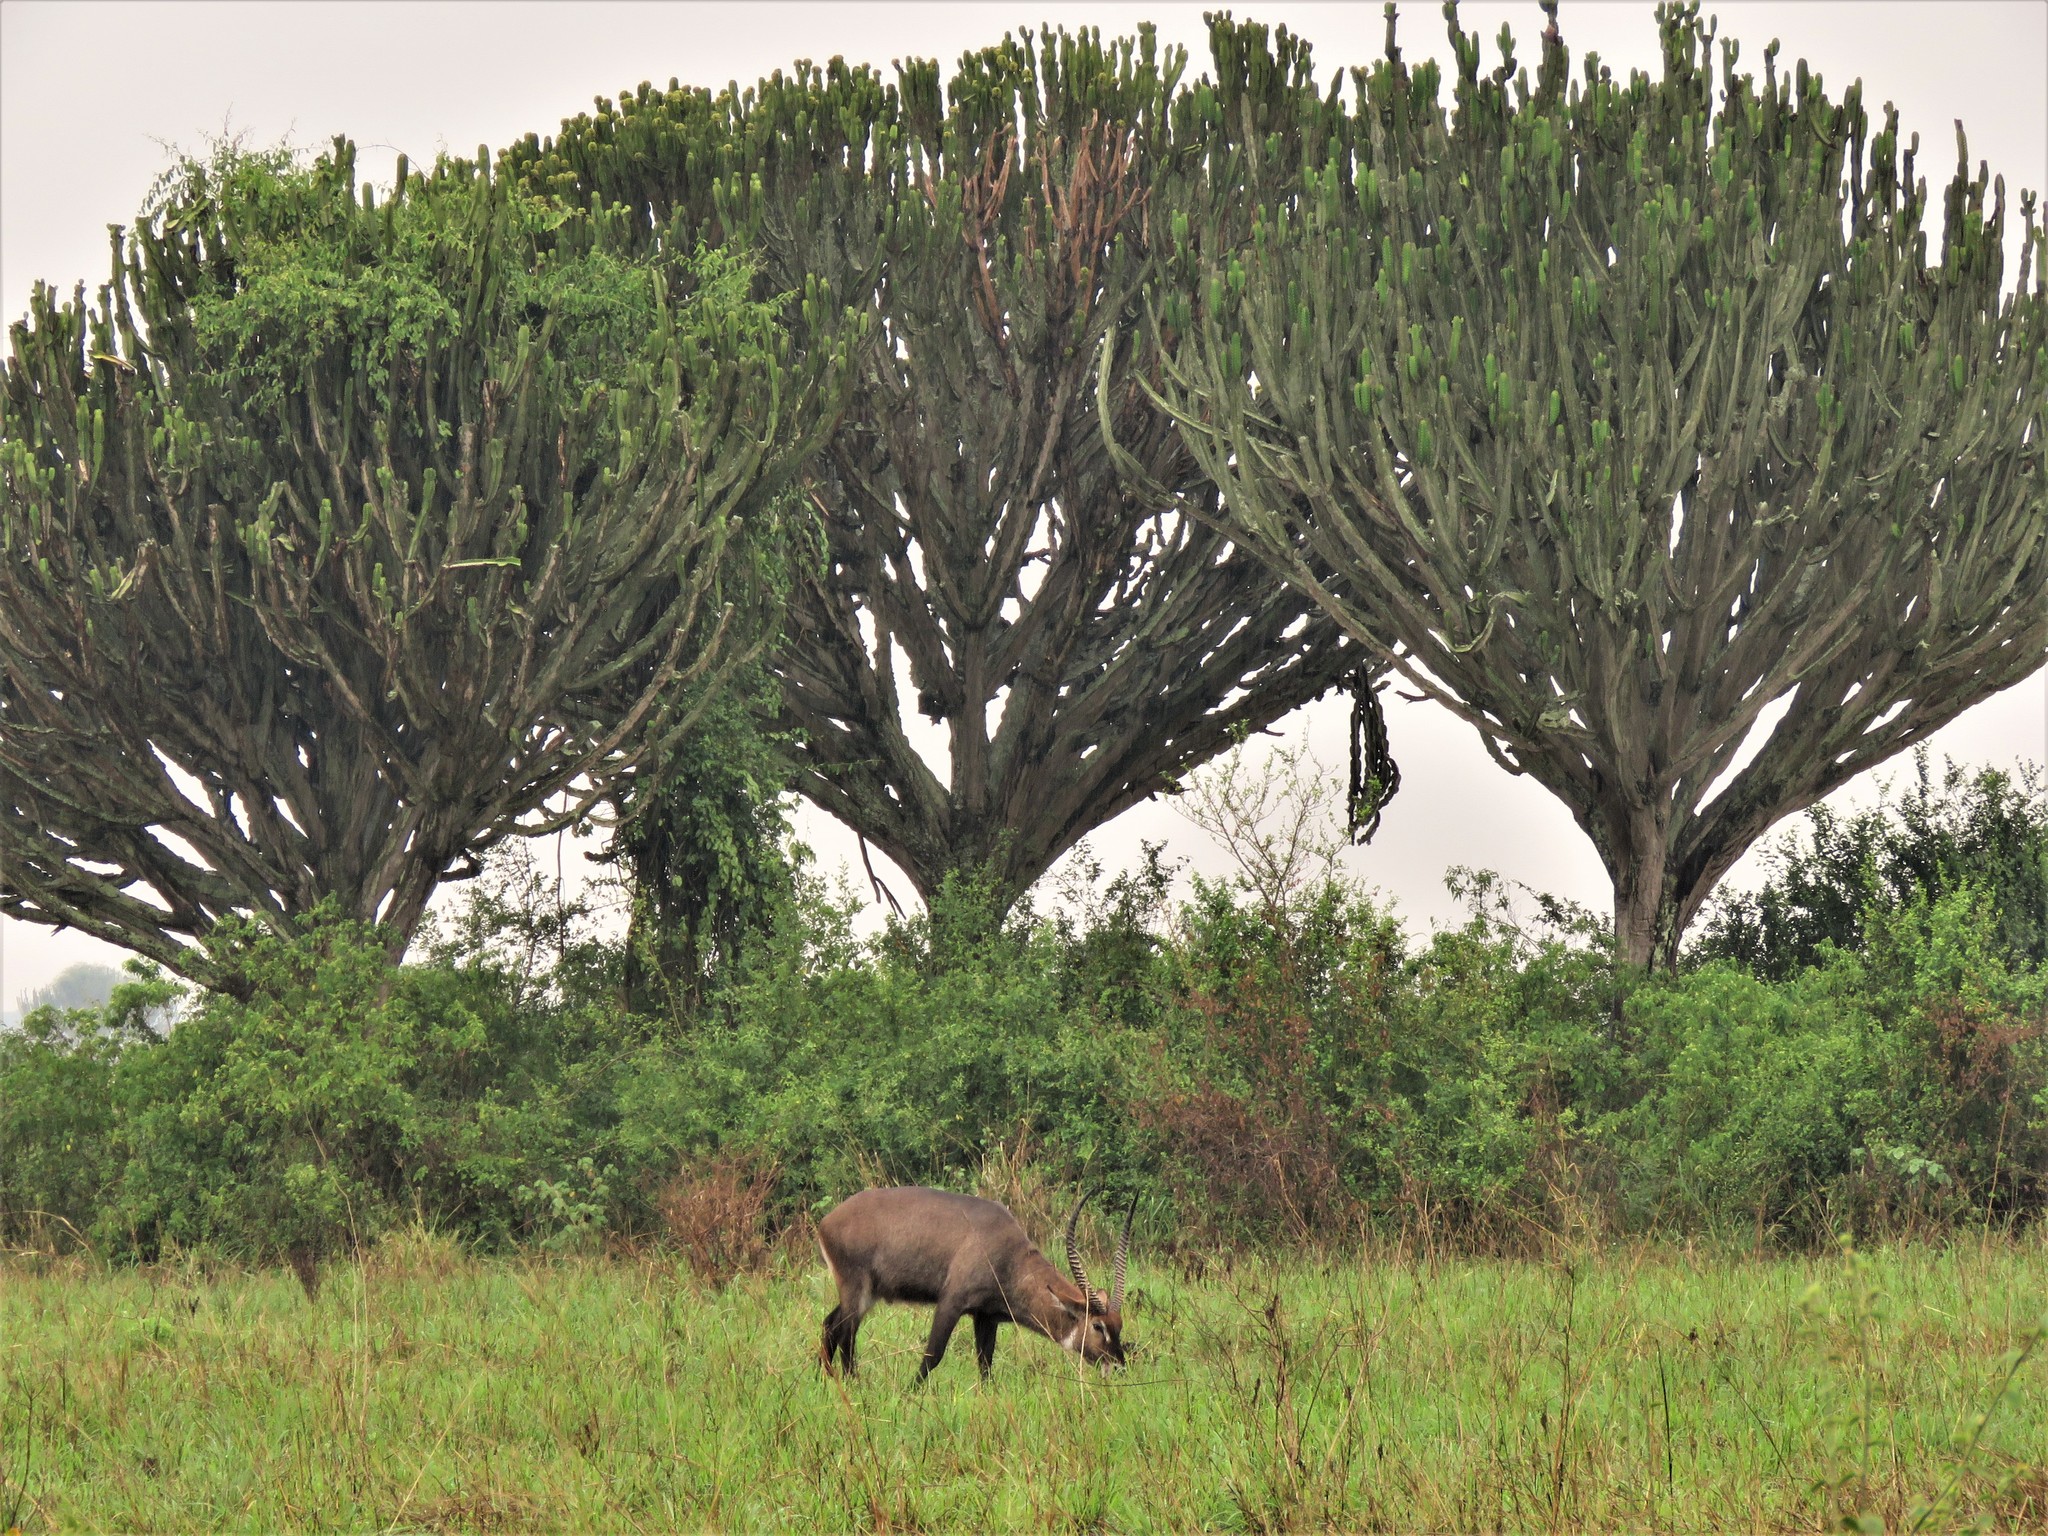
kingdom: Animalia
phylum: Chordata
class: Mammalia
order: Artiodactyla
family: Bovidae
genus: Kobus
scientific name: Kobus ellipsiprymnus
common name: Waterbuck
